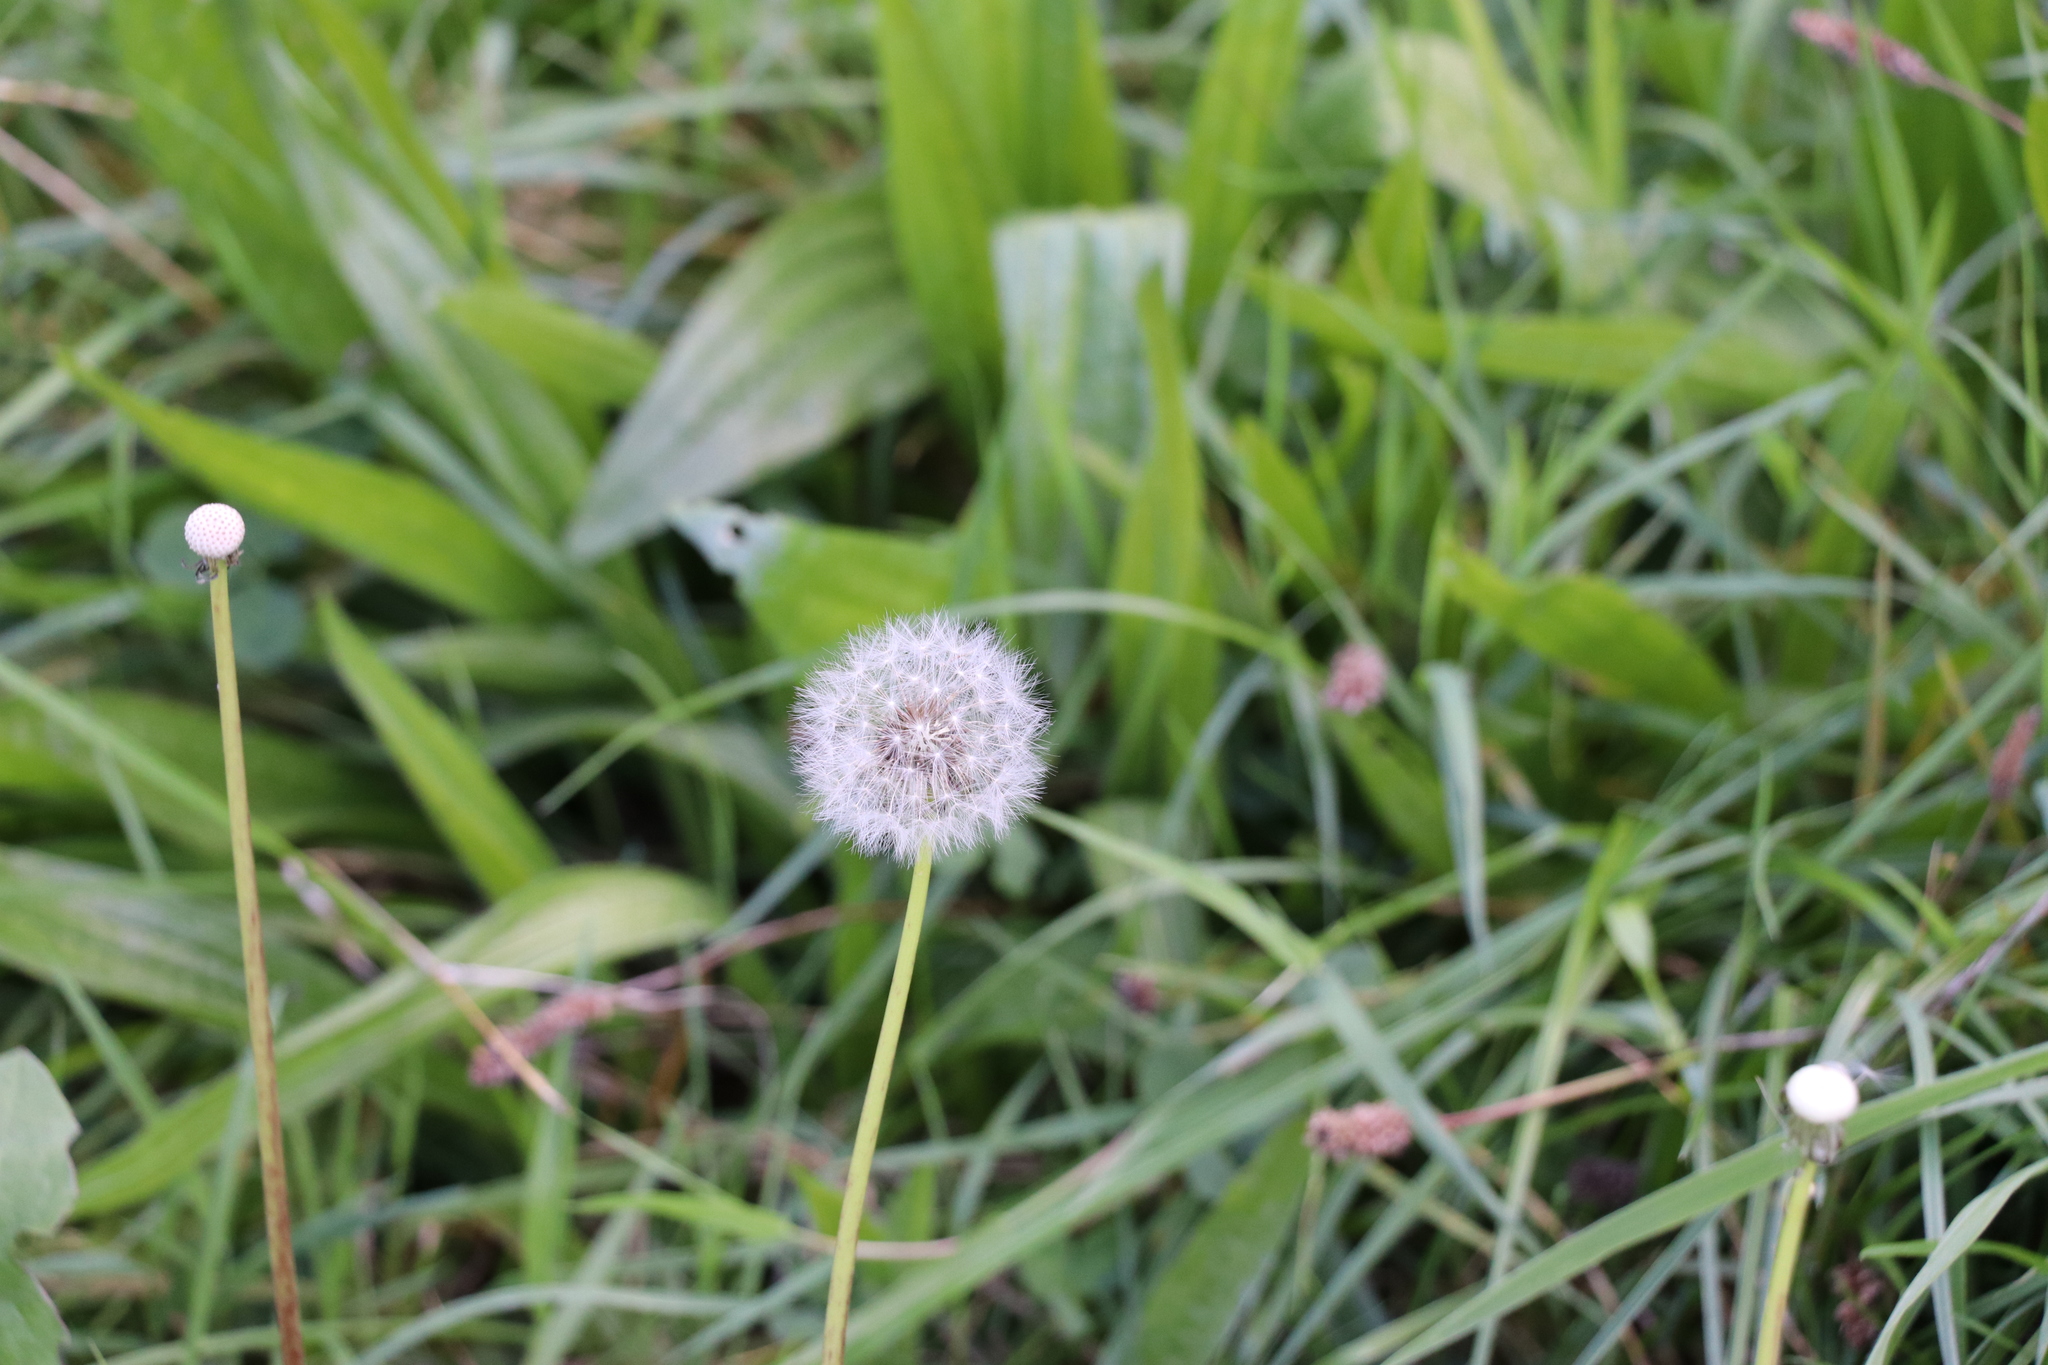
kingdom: Plantae
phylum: Tracheophyta
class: Magnoliopsida
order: Asterales
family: Asteraceae
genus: Taraxacum
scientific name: Taraxacum officinale
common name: Common dandelion
